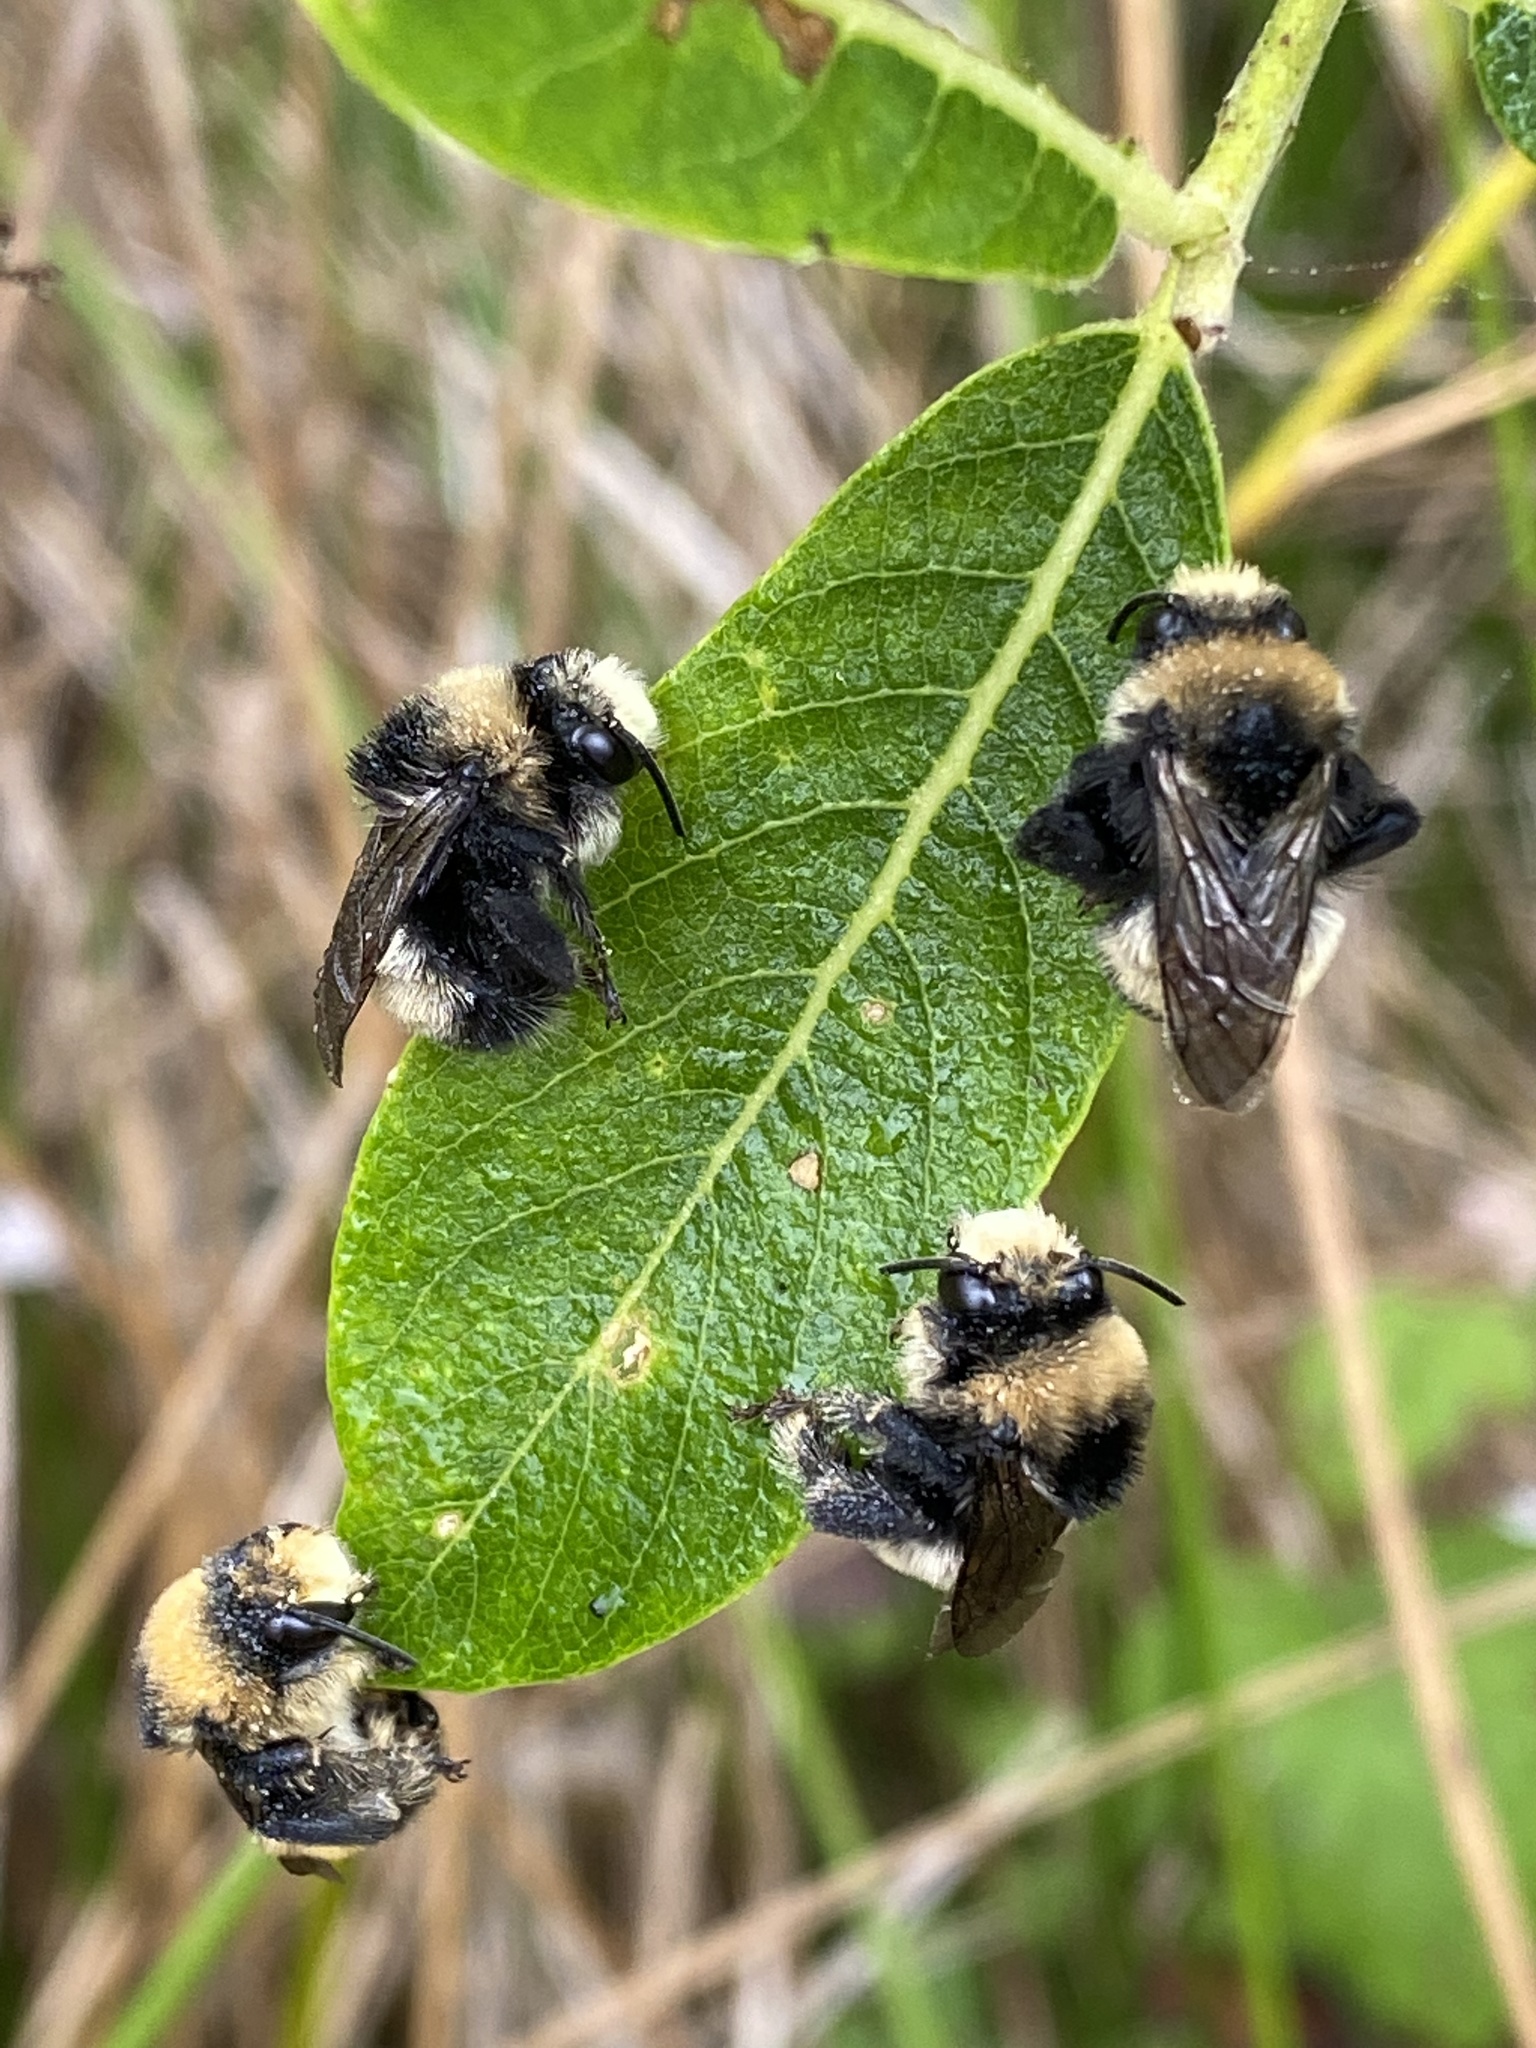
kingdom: Animalia
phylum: Arthropoda
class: Insecta
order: Hymenoptera
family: Apidae
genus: Anthophora
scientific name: Anthophora bomboides
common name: Bumble-bee-mimic digger bee
